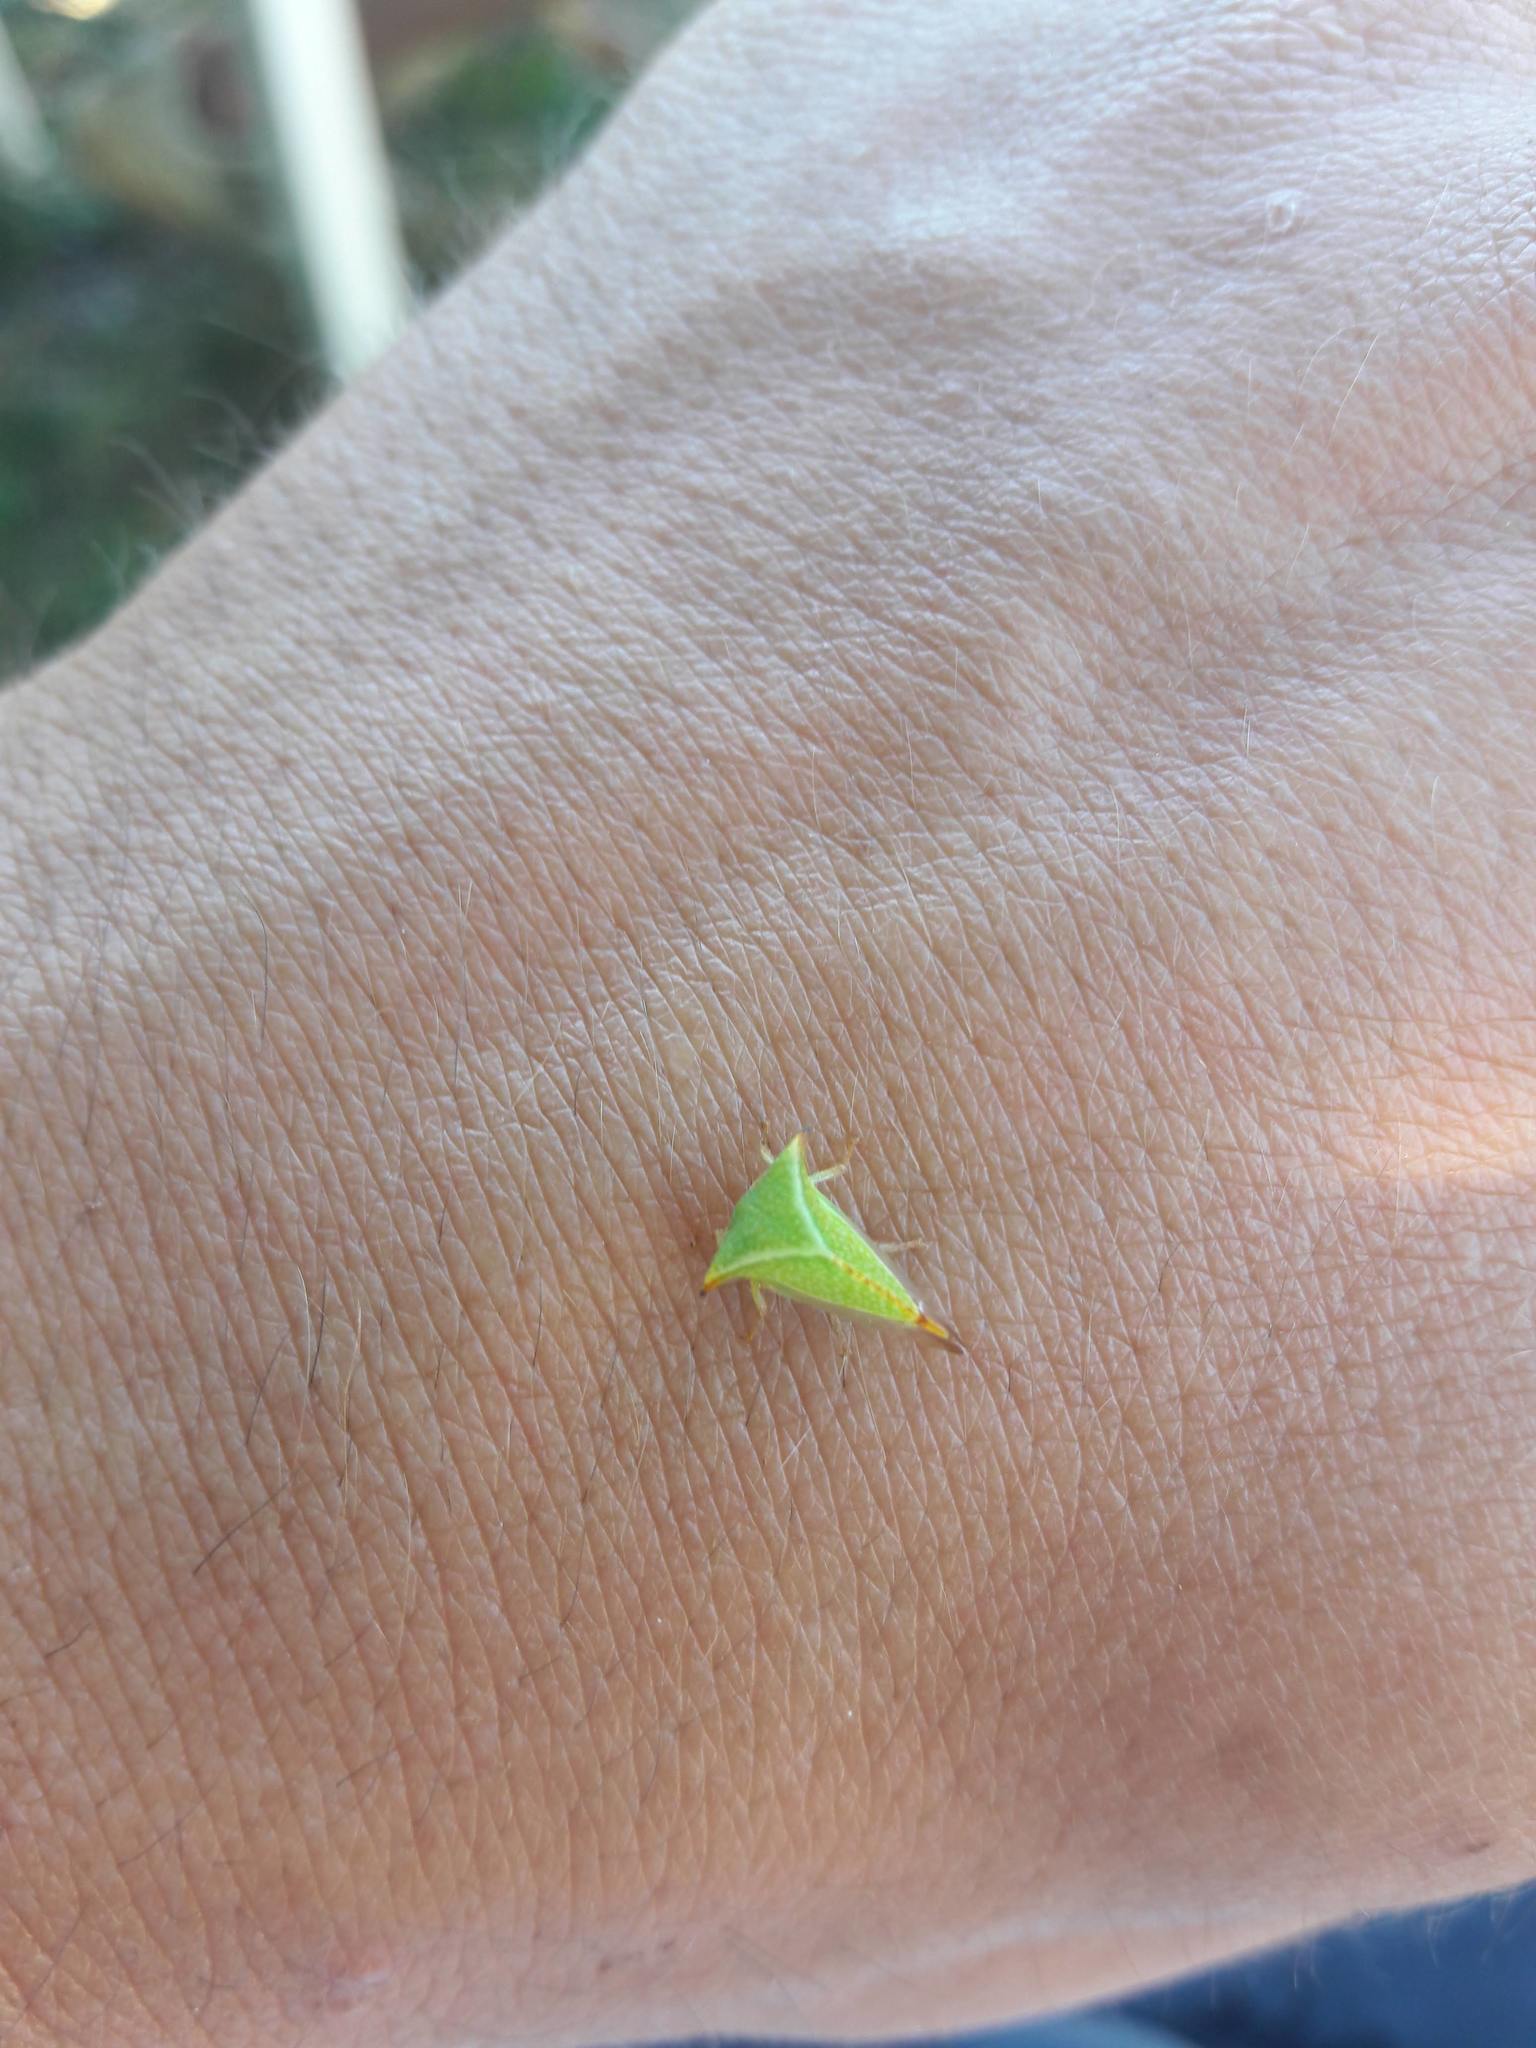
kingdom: Animalia
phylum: Arthropoda
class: Insecta
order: Hemiptera
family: Membracidae
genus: Stictocephala
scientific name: Stictocephala bisonia
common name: American buffalo treehopper
